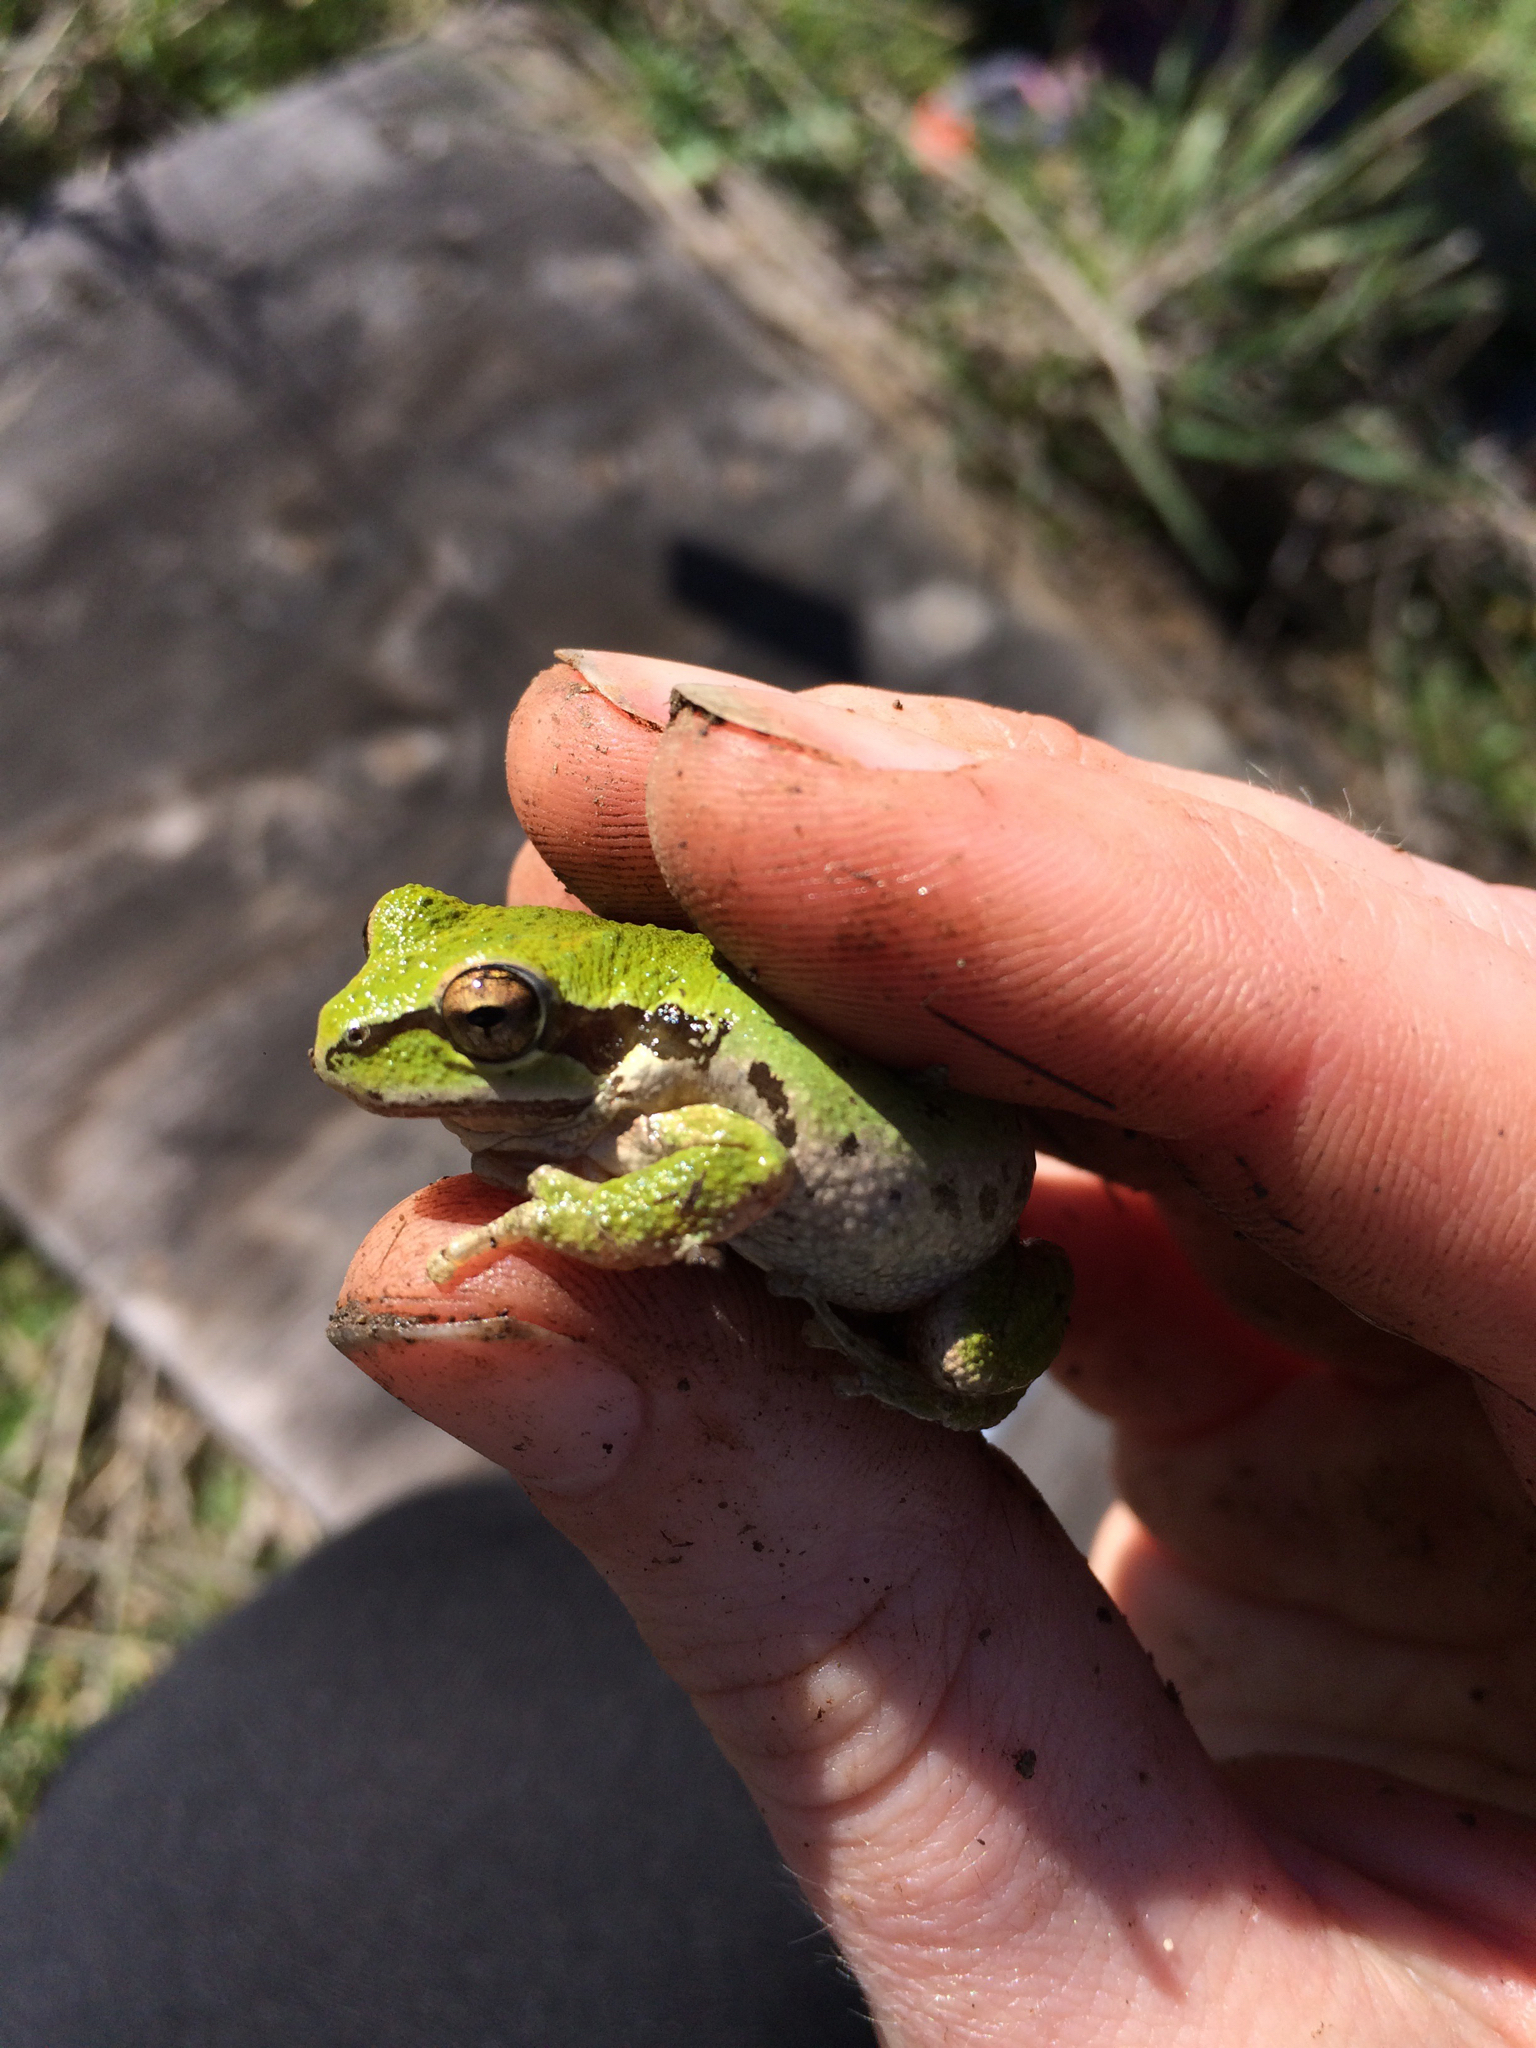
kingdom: Animalia
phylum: Chordata
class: Amphibia
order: Anura
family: Hylidae
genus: Pseudacris
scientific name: Pseudacris regilla
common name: Pacific chorus frog
